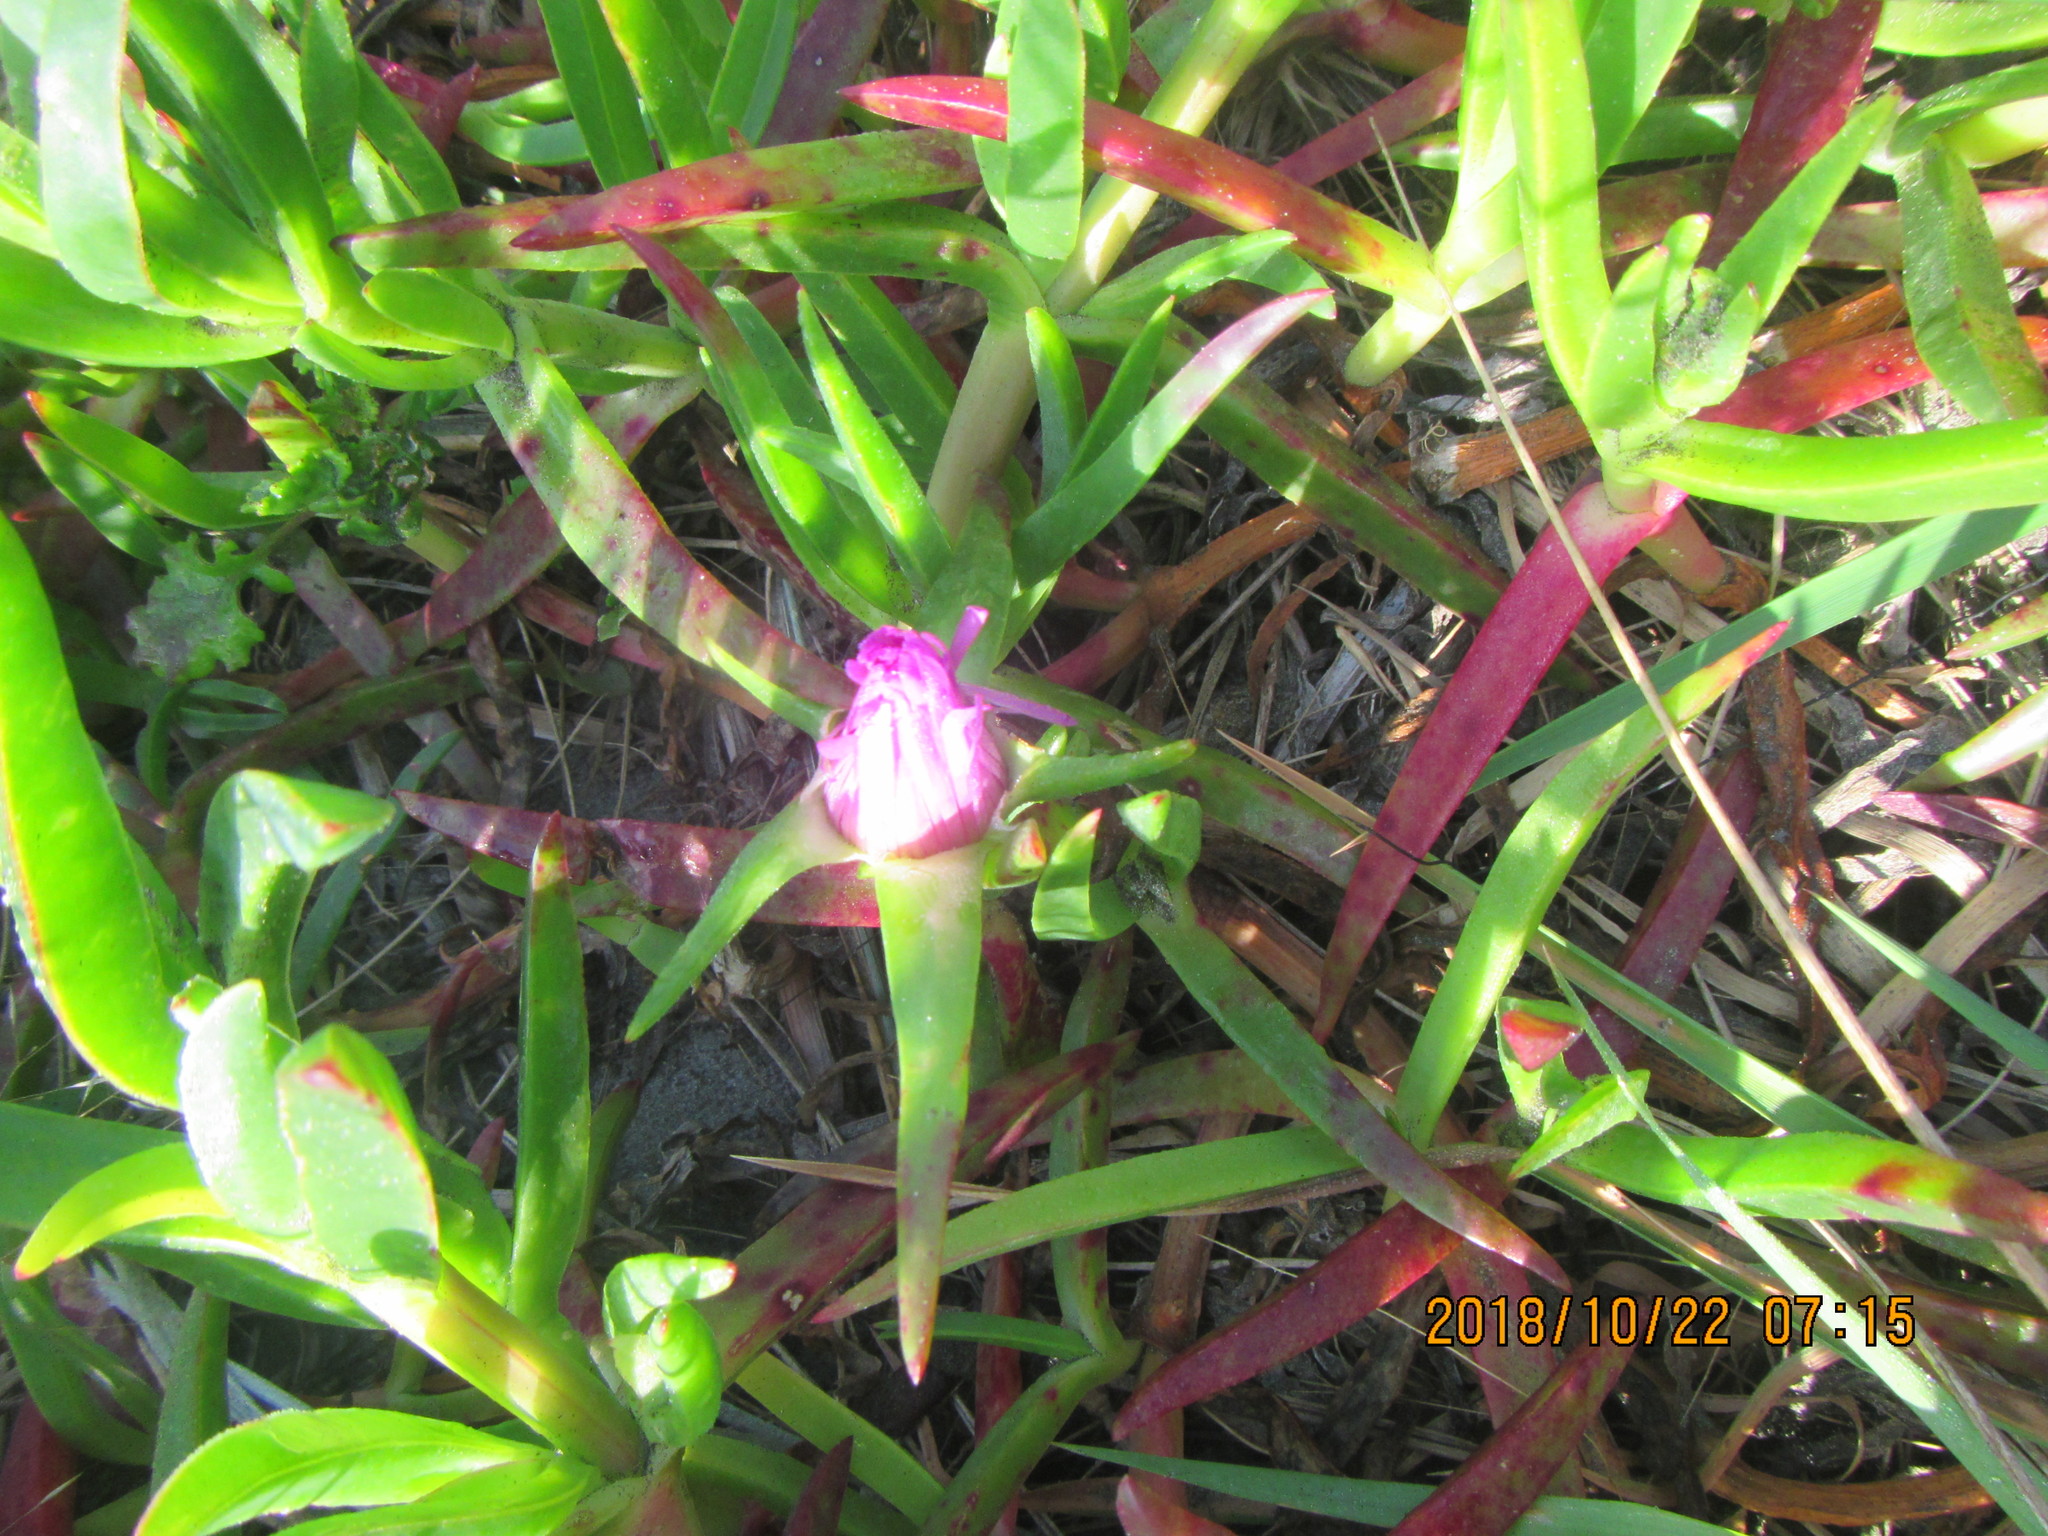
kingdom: Plantae
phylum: Tracheophyta
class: Magnoliopsida
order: Caryophyllales
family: Aizoaceae
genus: Carpobrotus
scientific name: Carpobrotus chilensis
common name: Sea fig
